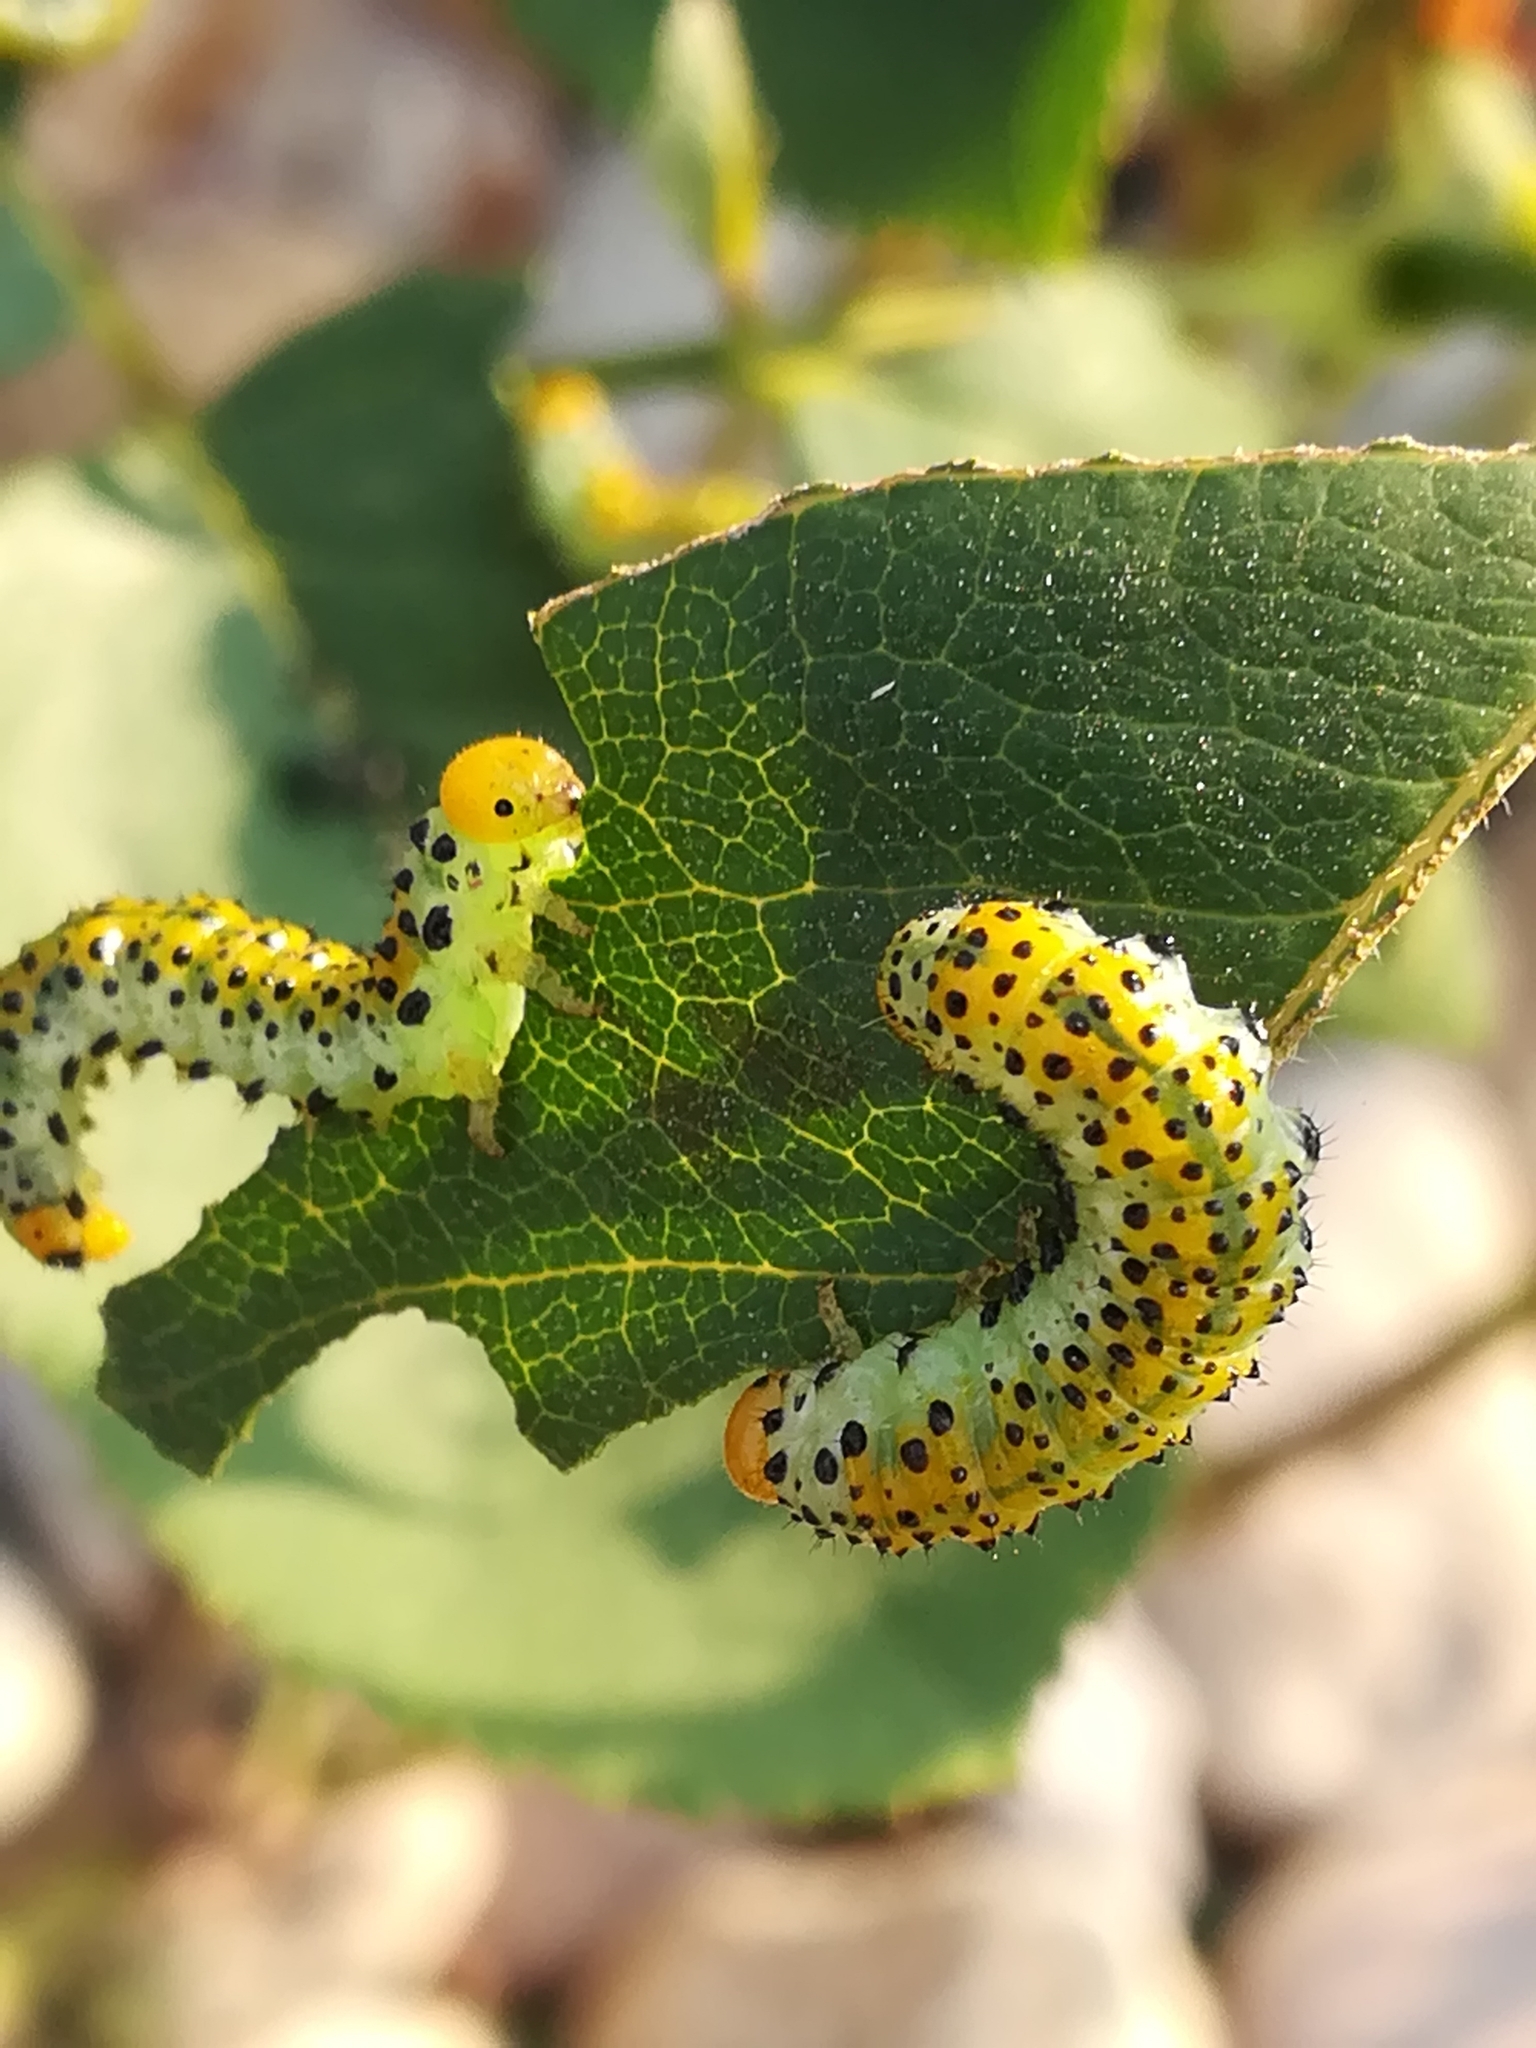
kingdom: Animalia
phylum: Arthropoda
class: Insecta
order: Hymenoptera
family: Argidae
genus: Arge
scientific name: Arge ochropus
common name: Argid sawfly
